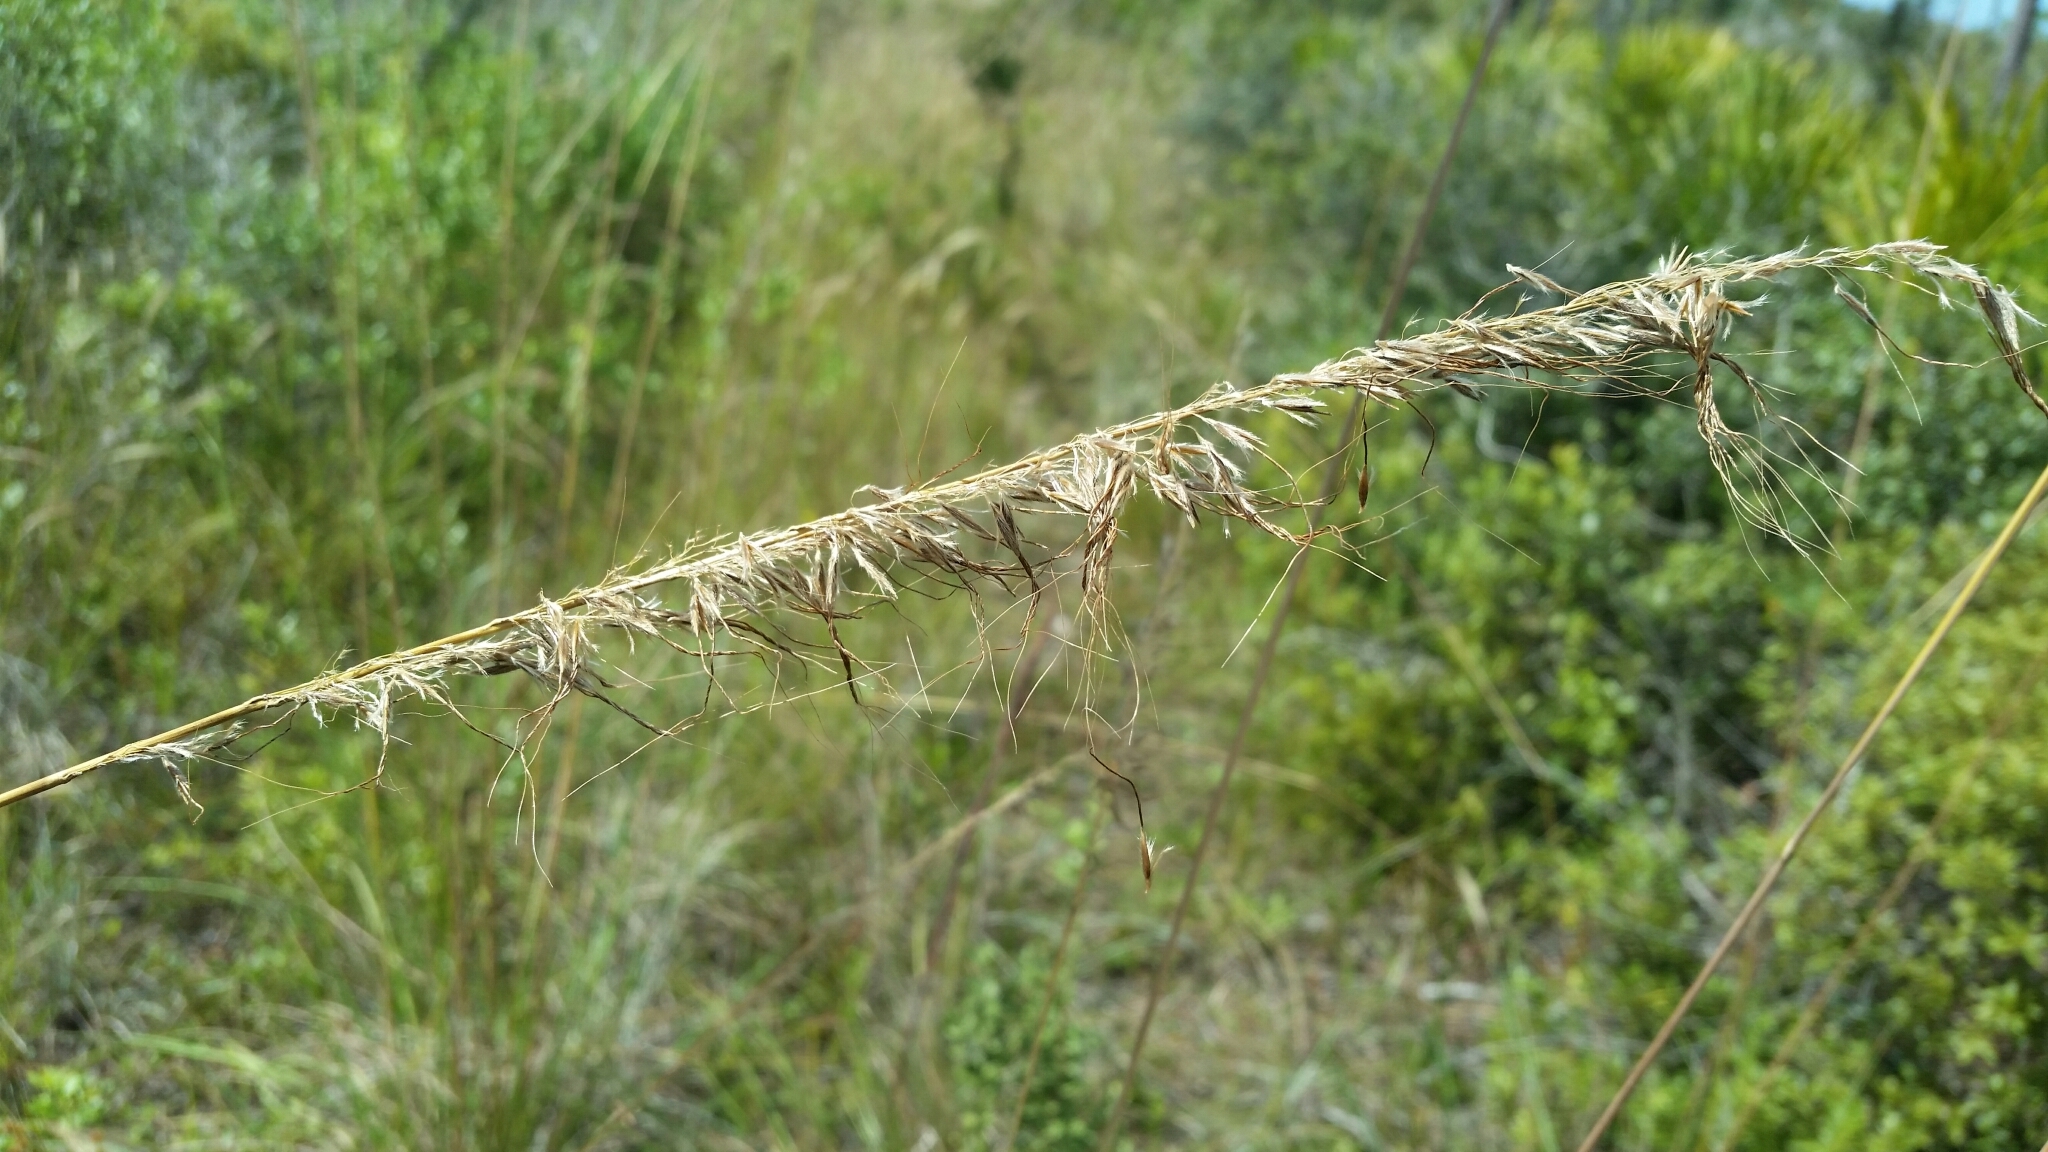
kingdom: Plantae
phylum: Tracheophyta
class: Liliopsida
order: Poales
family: Poaceae
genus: Sorghastrum
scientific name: Sorghastrum secundum
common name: Lopsided indian grass
